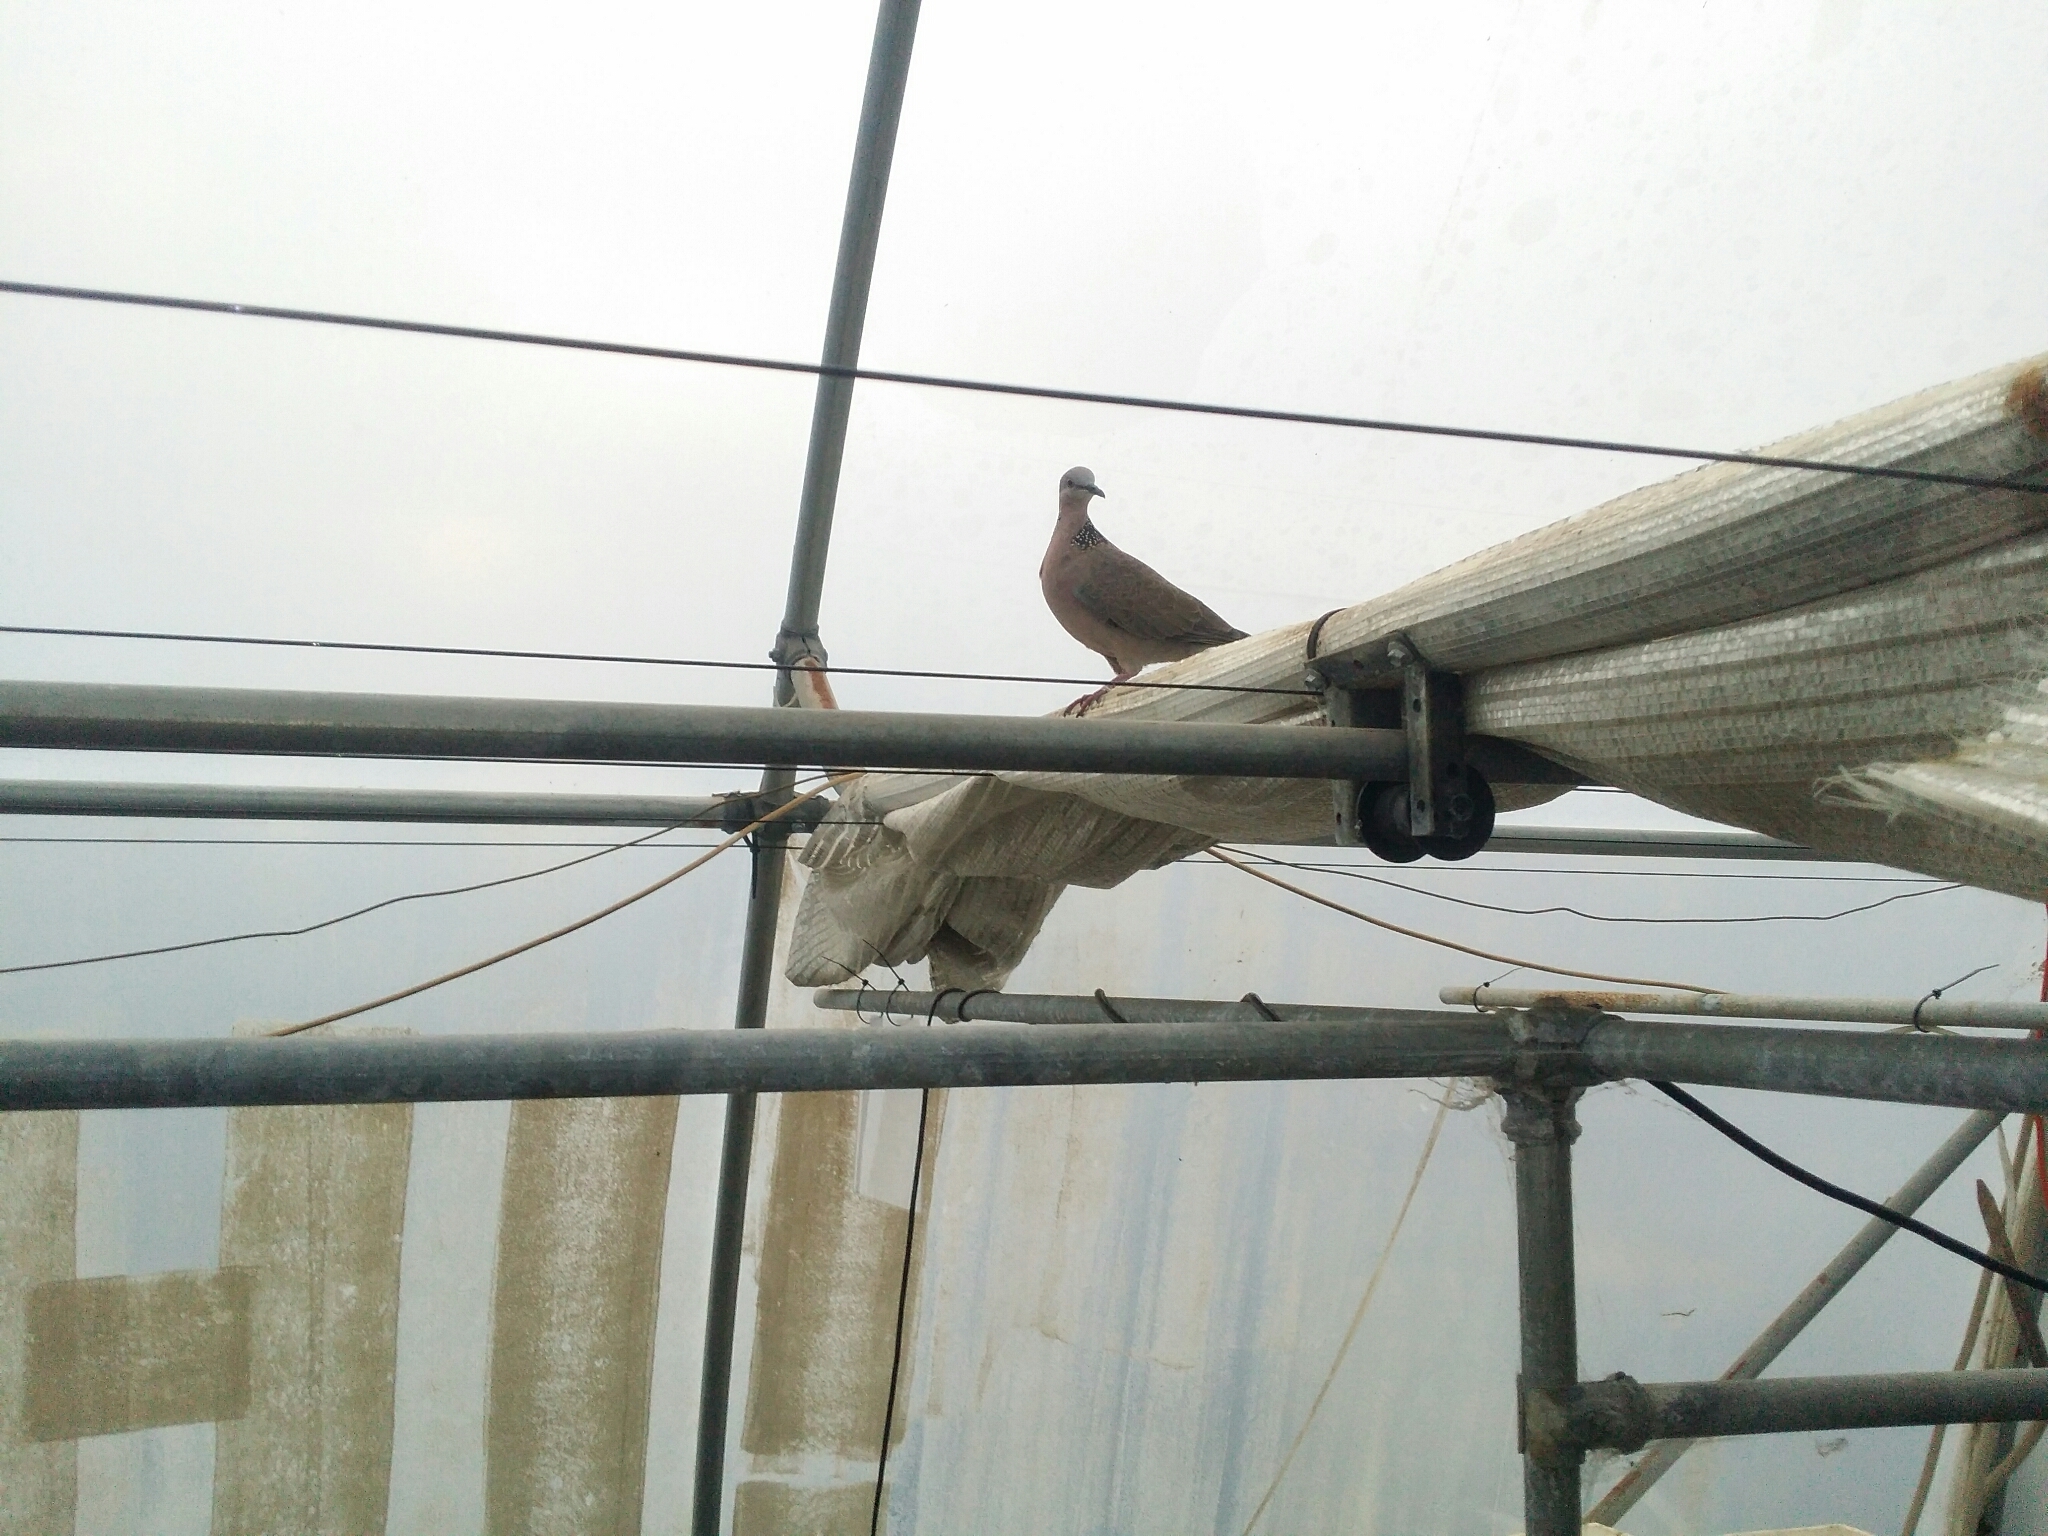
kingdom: Animalia
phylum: Chordata
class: Aves
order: Columbiformes
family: Columbidae
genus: Spilopelia
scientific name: Spilopelia chinensis
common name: Spotted dove
